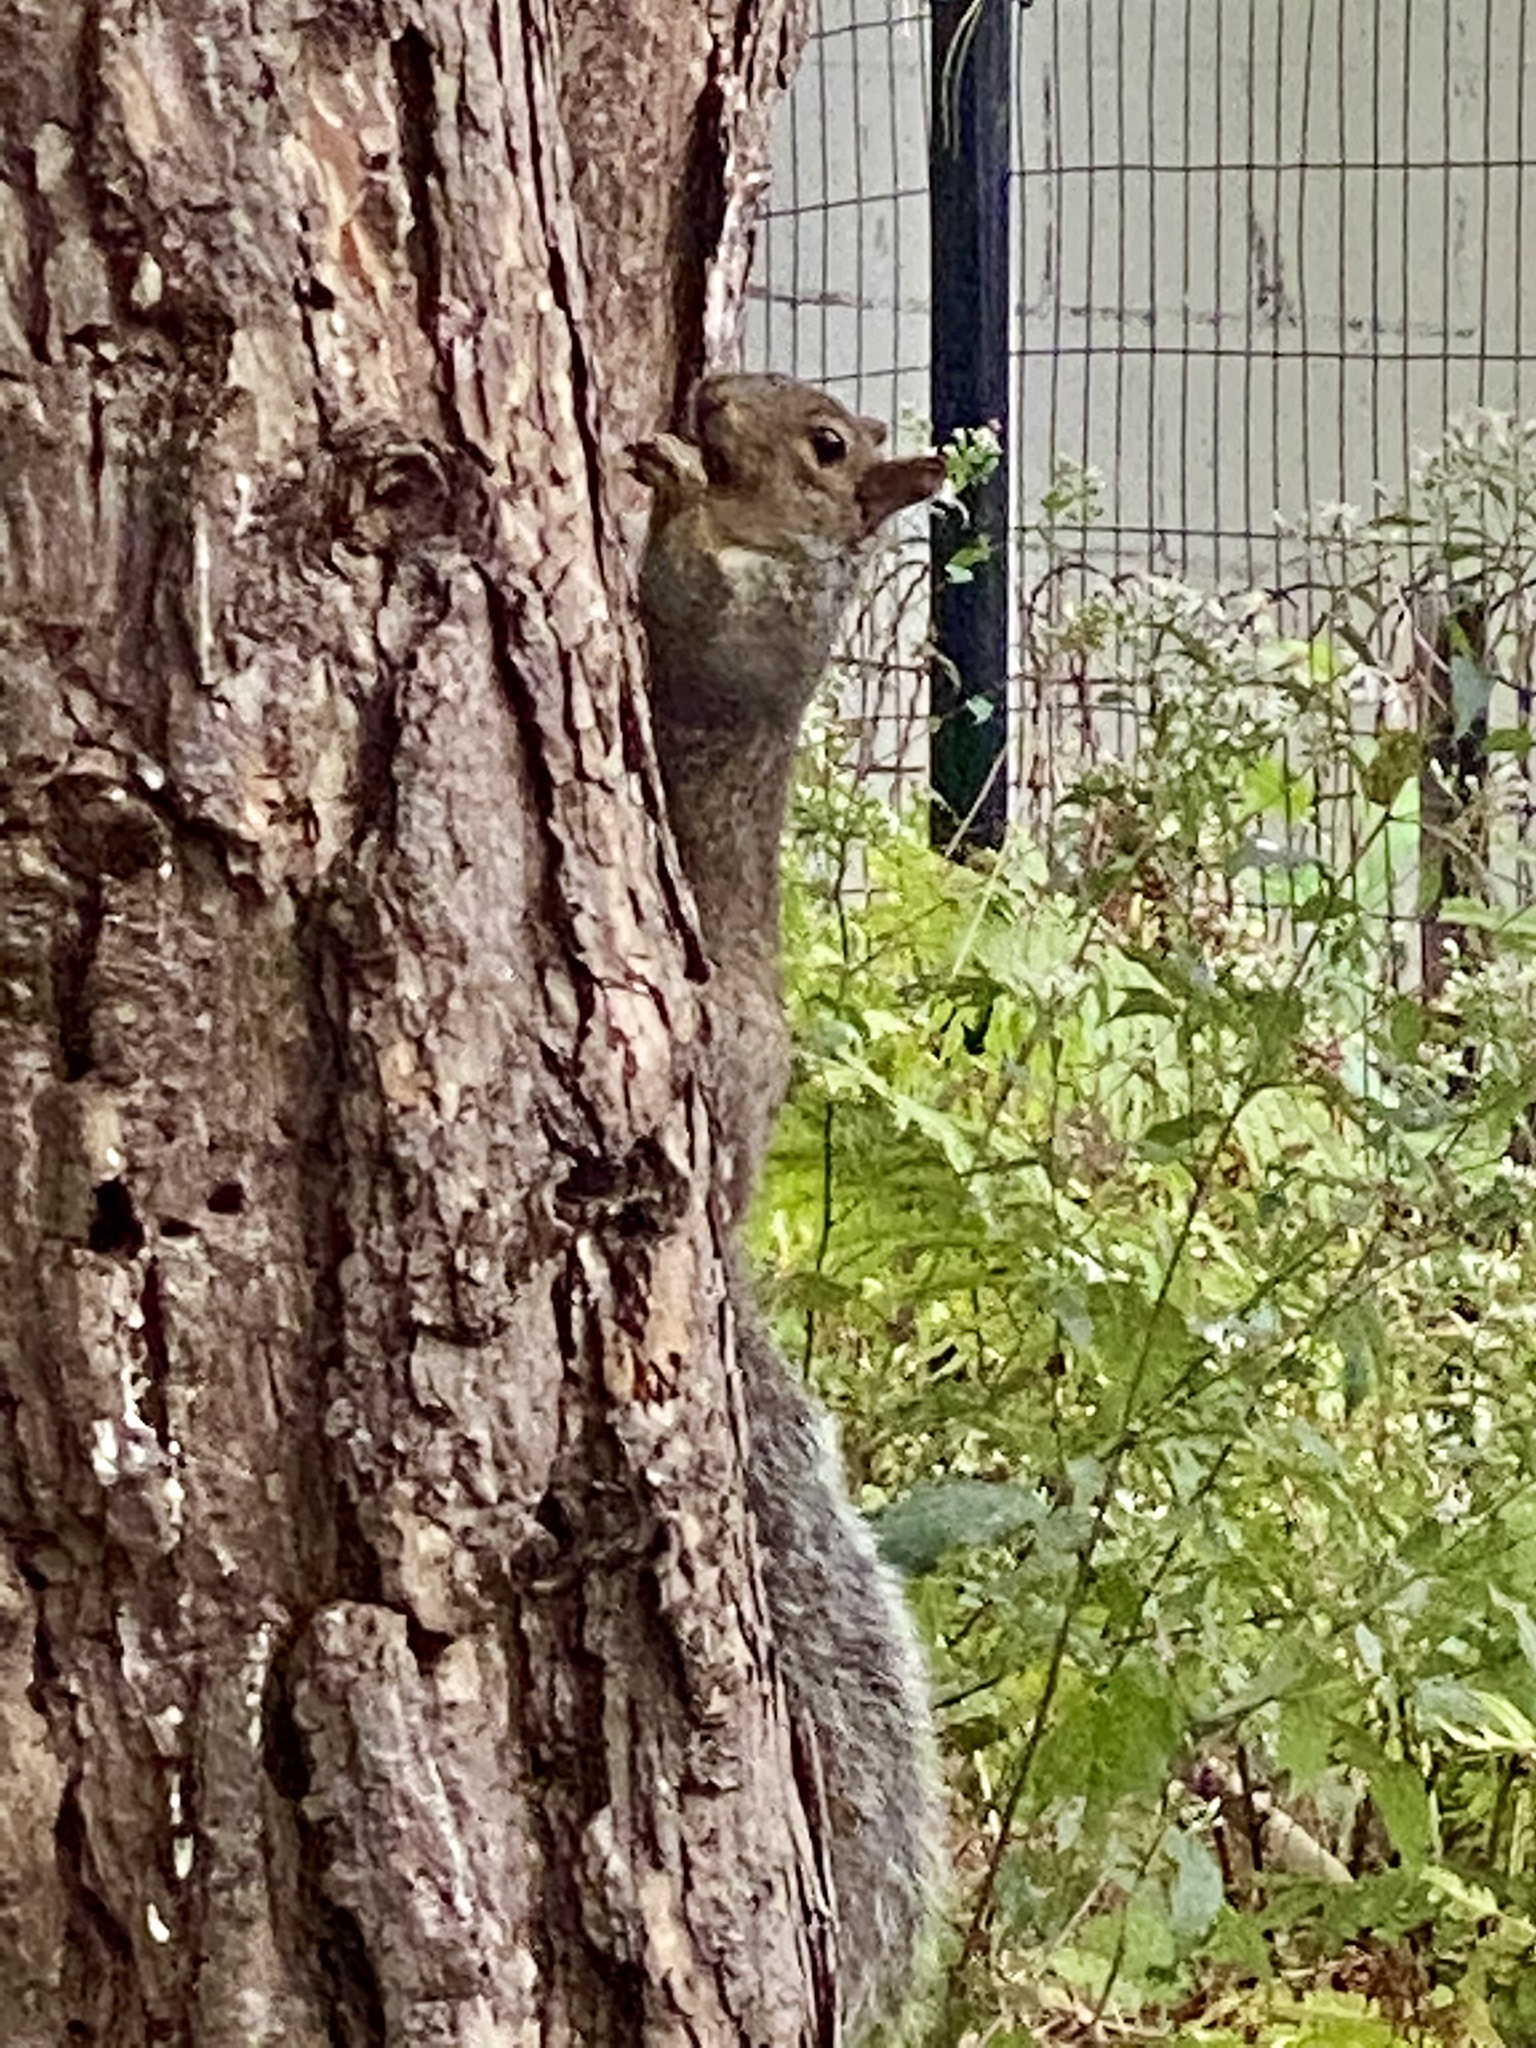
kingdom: Animalia
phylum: Chordata
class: Mammalia
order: Rodentia
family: Sciuridae
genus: Sciurus
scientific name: Sciurus carolinensis
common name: Eastern gray squirrel
